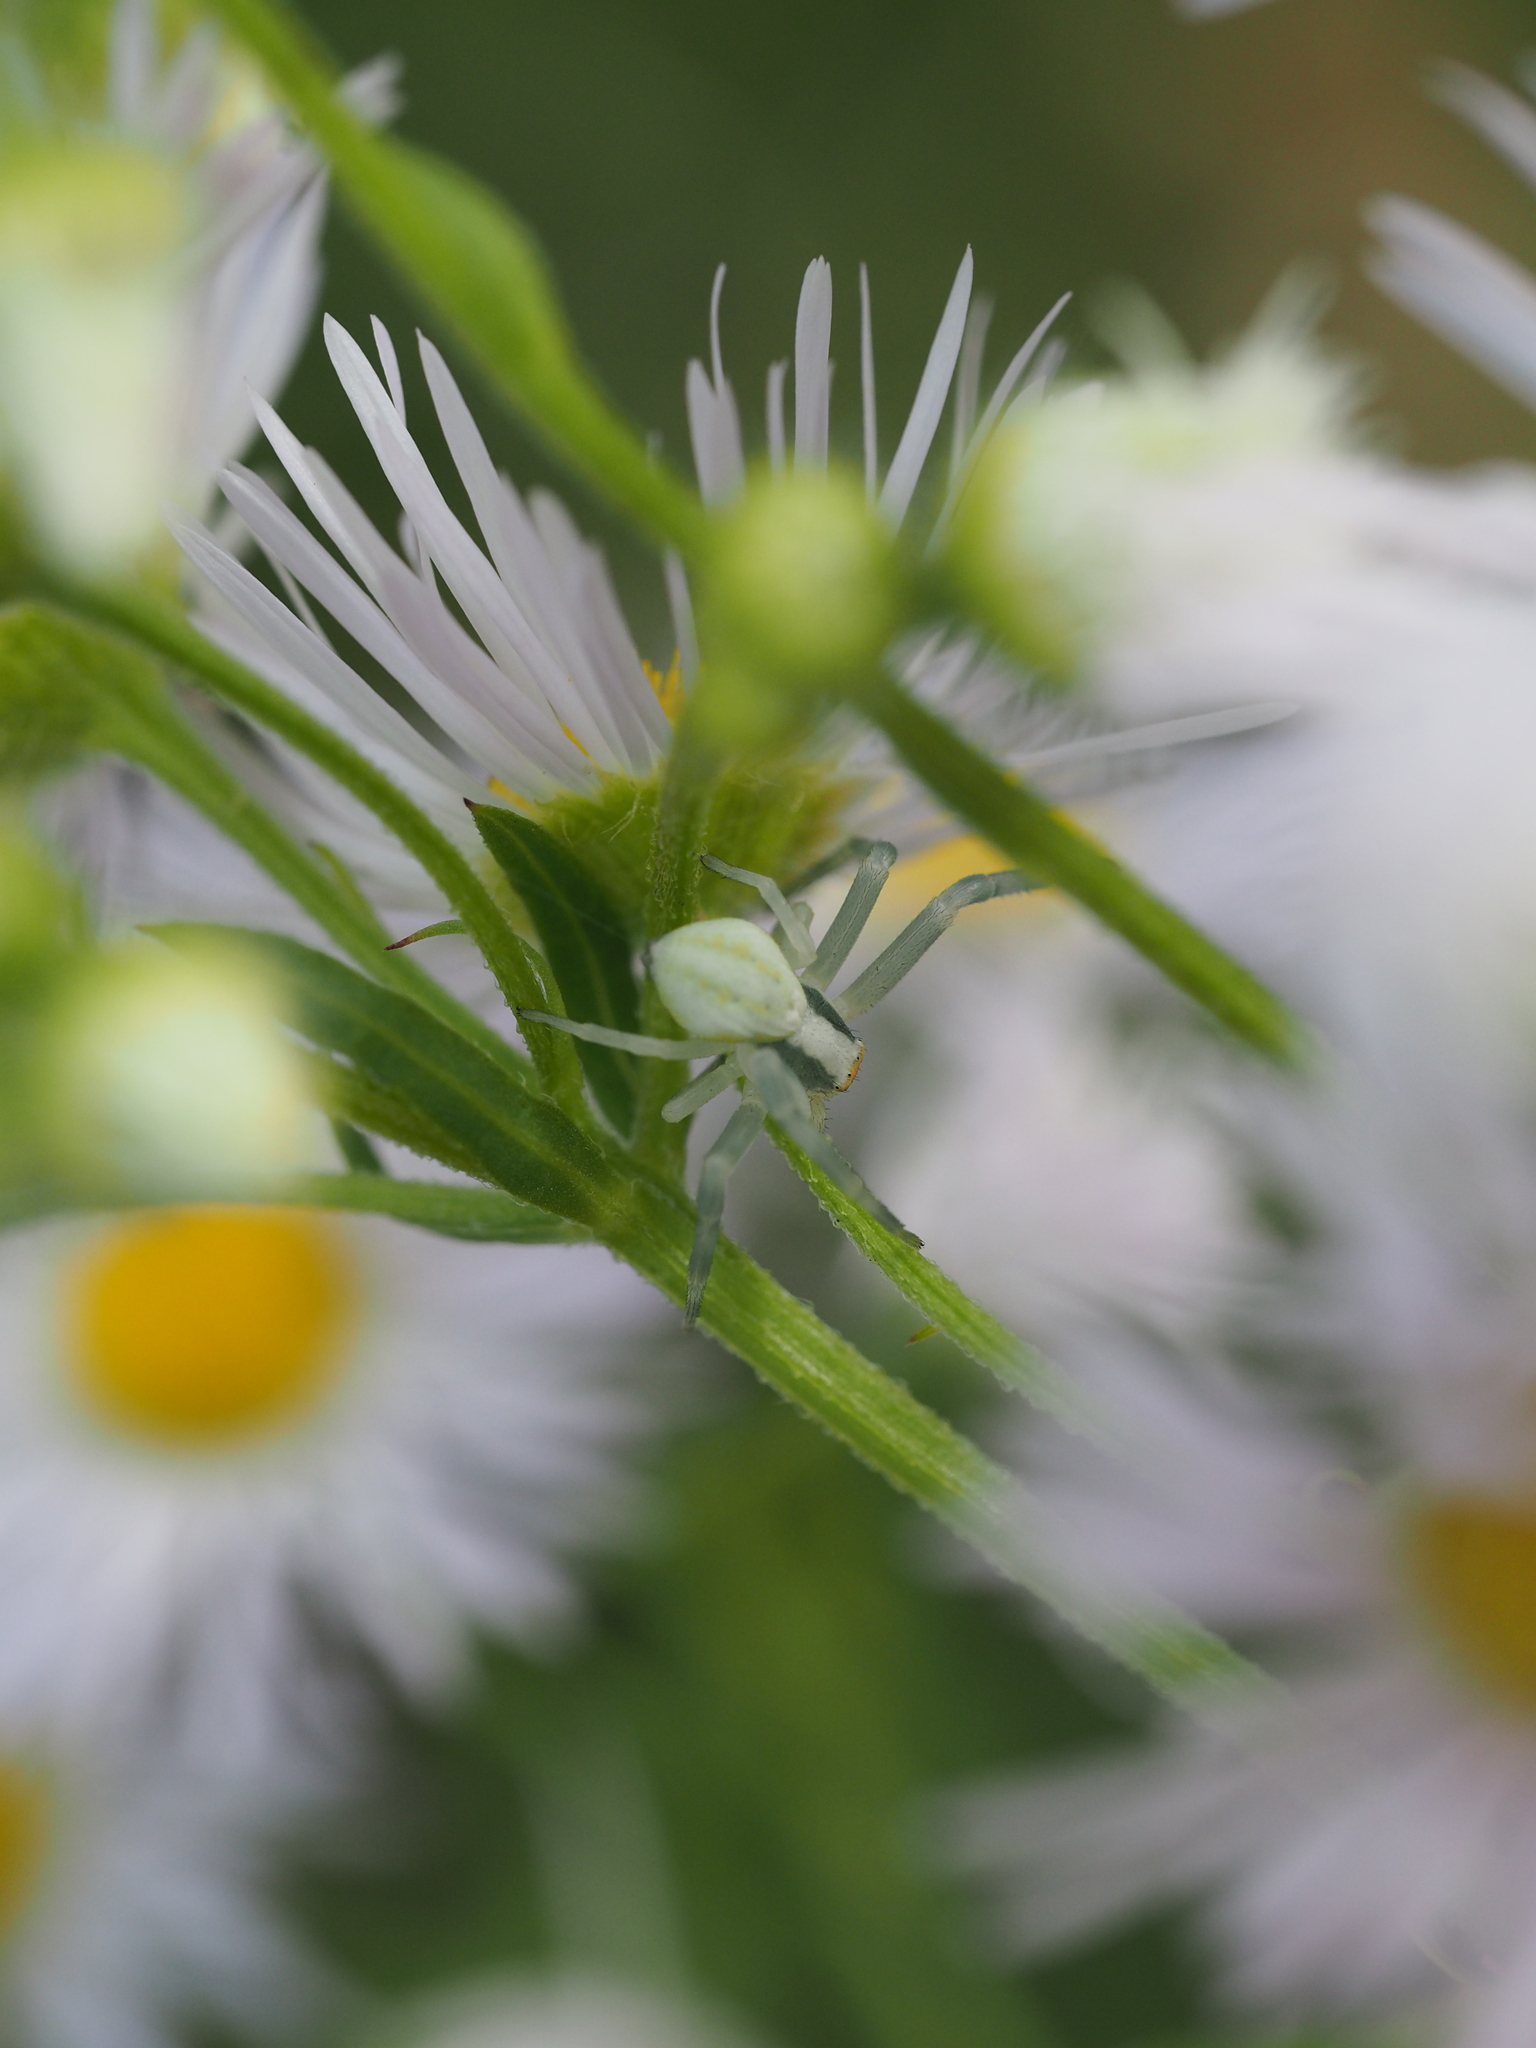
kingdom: Animalia
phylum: Arthropoda
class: Arachnida
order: Araneae
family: Thomisidae
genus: Misumena
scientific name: Misumena vatia
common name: Goldenrod crab spider
